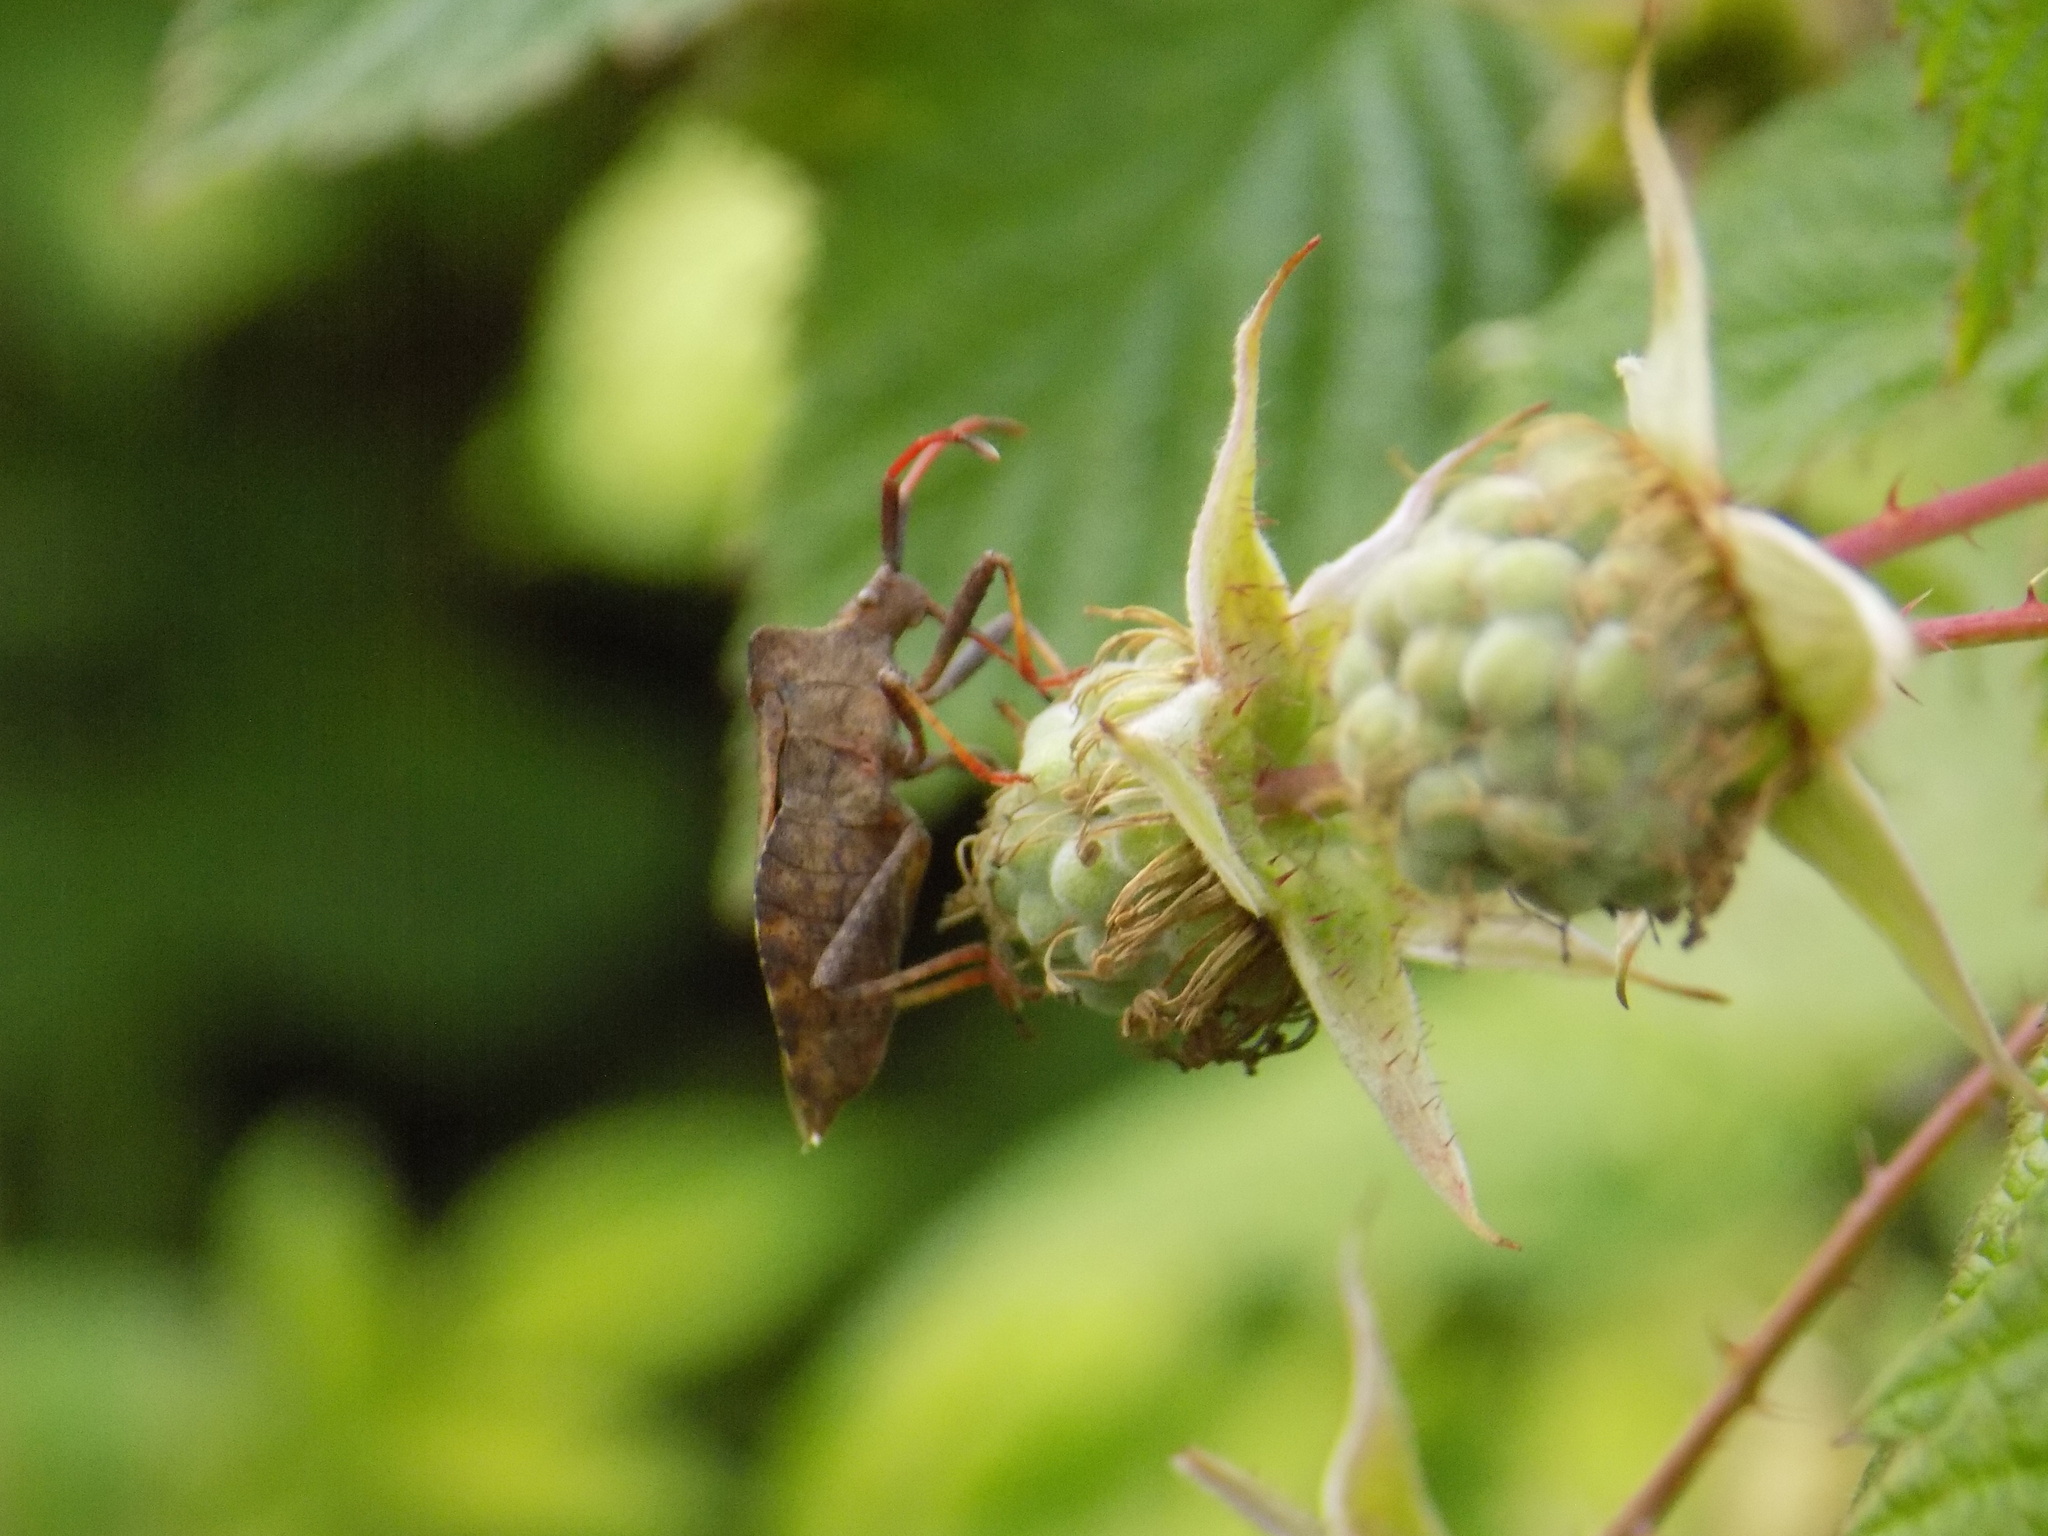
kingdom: Animalia
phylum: Arthropoda
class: Insecta
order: Hemiptera
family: Coreidae
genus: Coreus
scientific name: Coreus marginatus
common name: Dock bug
